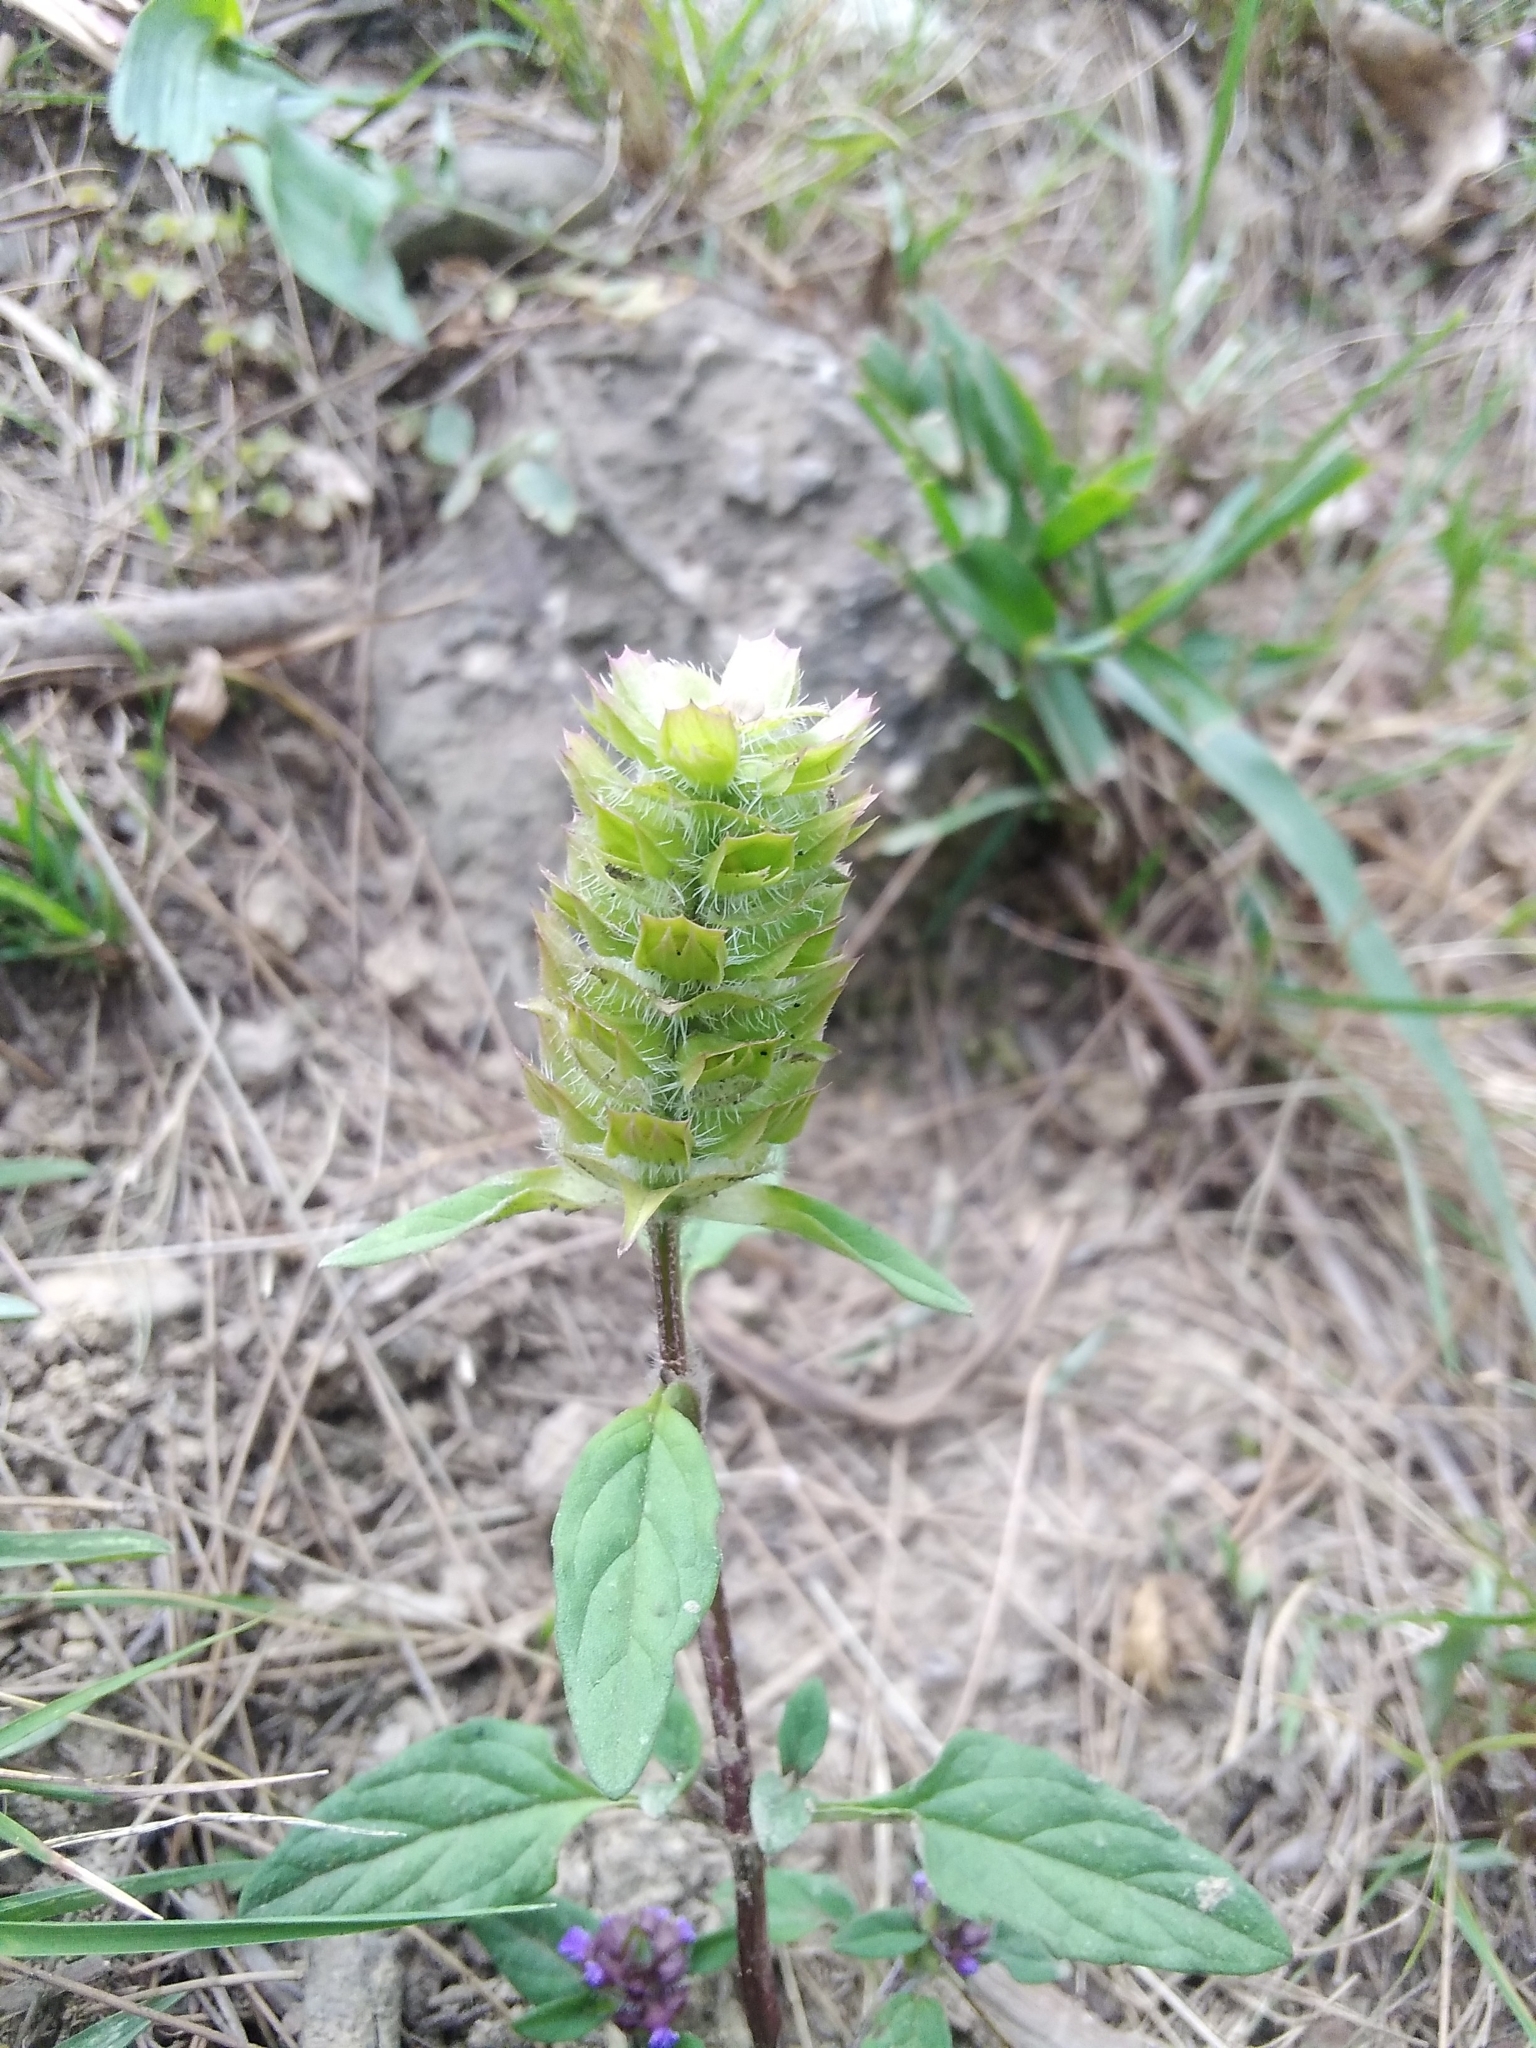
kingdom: Plantae
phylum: Tracheophyta
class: Magnoliopsida
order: Lamiales
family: Lamiaceae
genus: Prunella
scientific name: Prunella vulgaris
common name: Heal-all
